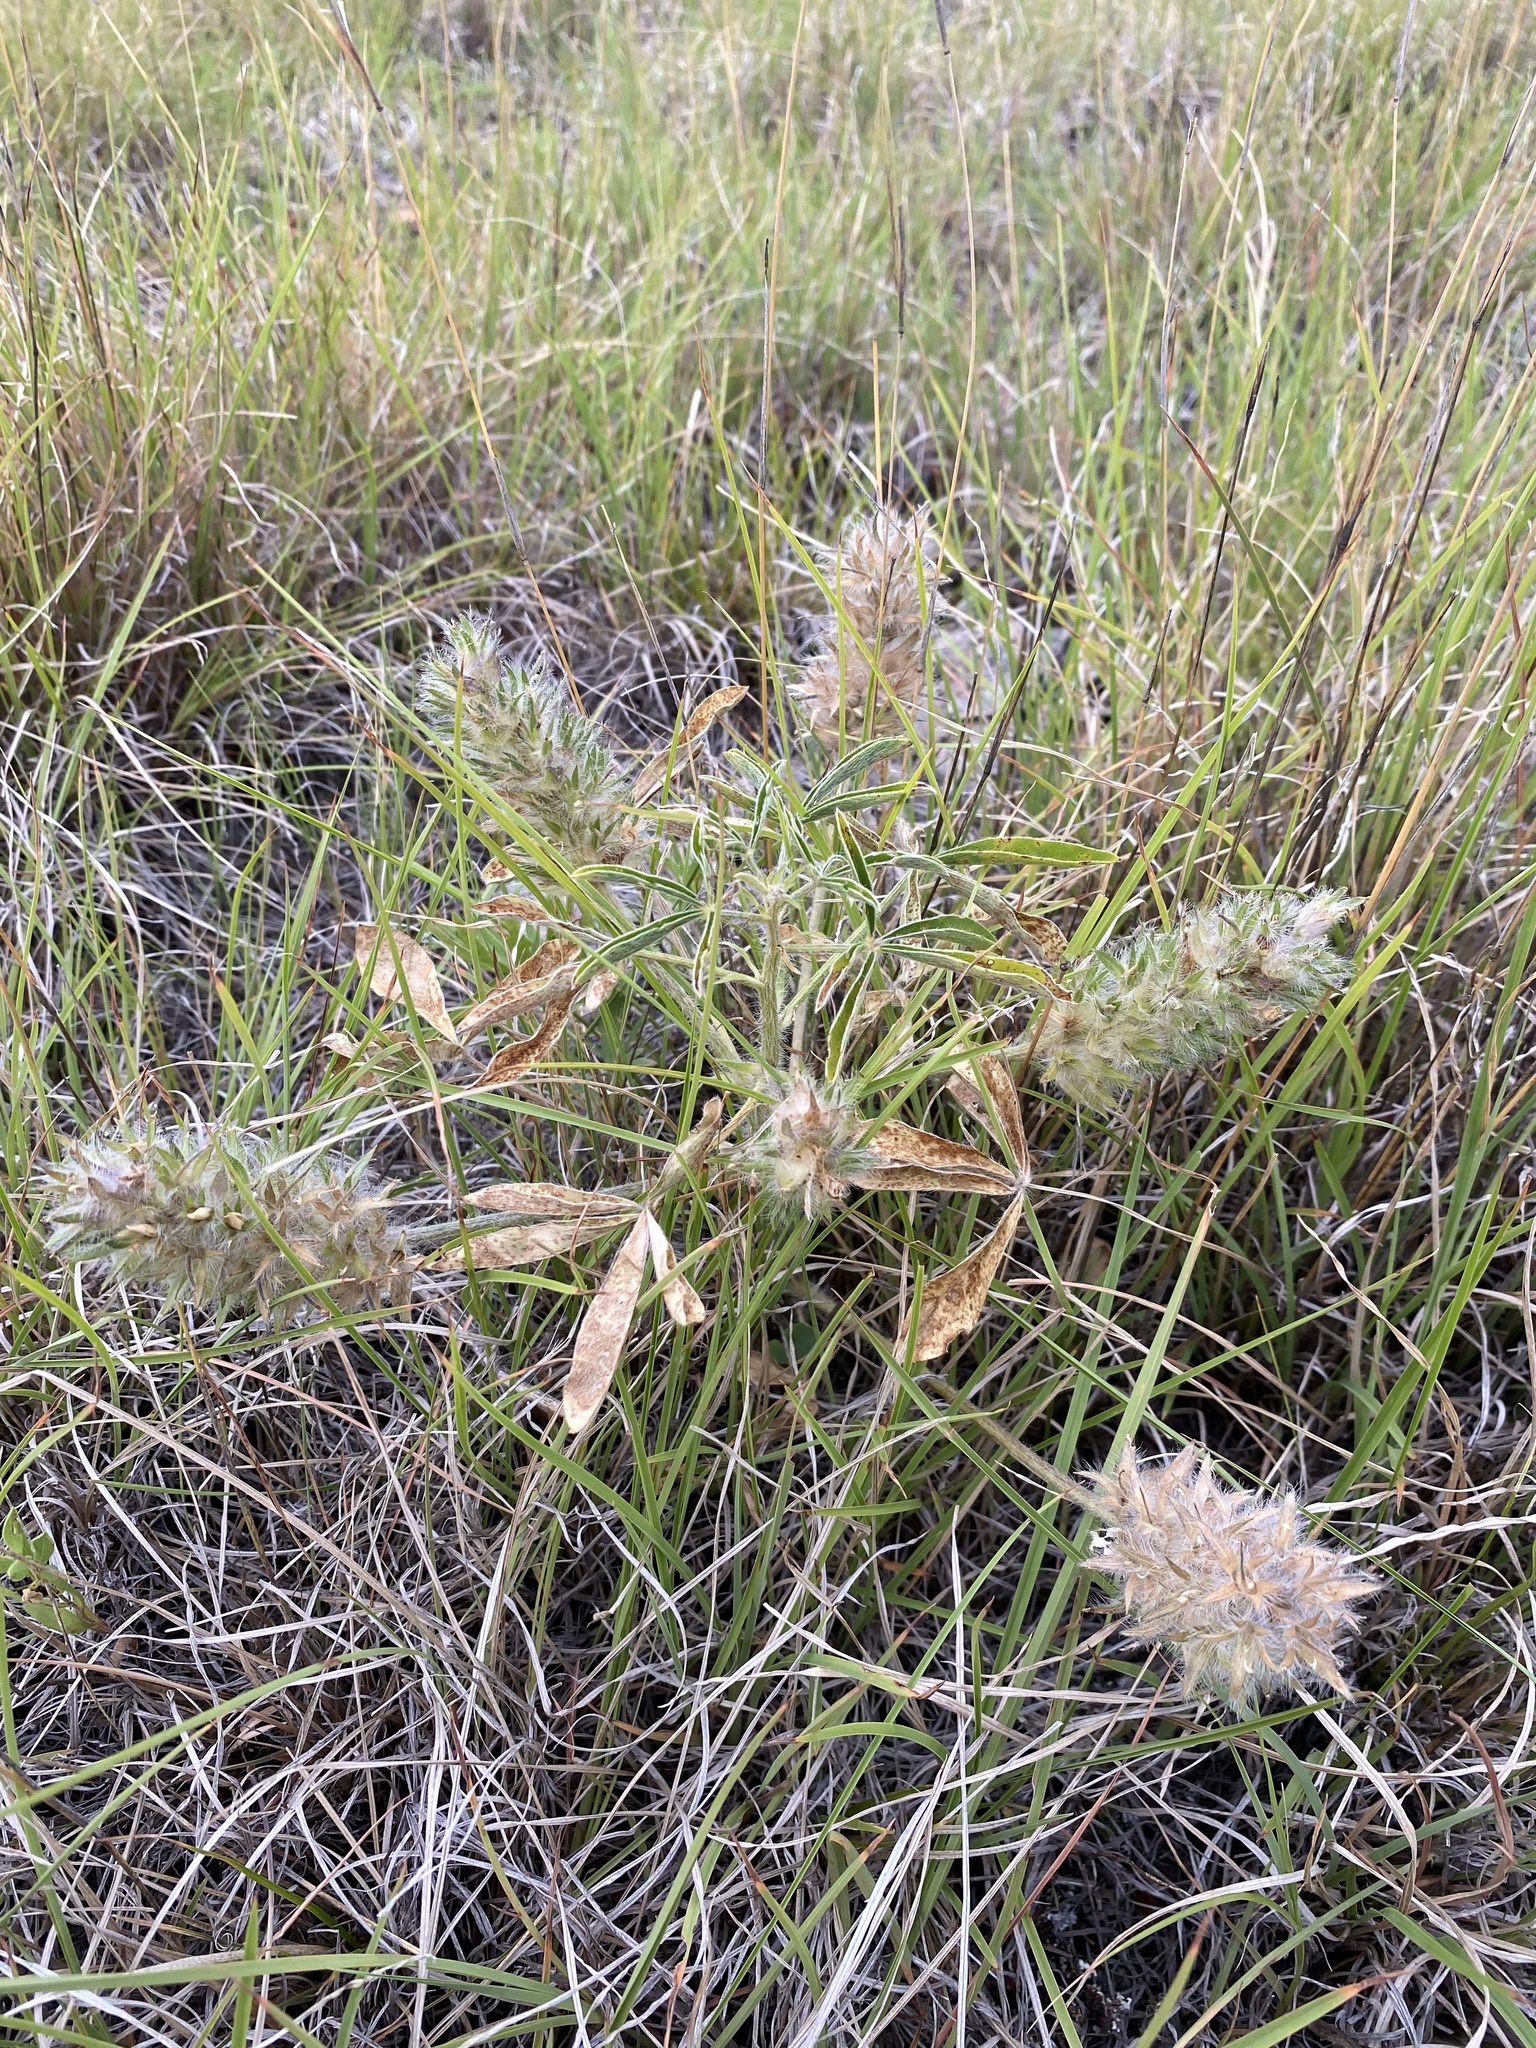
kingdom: Plantae
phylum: Tracheophyta
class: Magnoliopsida
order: Fabales
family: Fabaceae
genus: Pediomelum
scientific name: Pediomelum esculentum
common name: Indian-turnip
